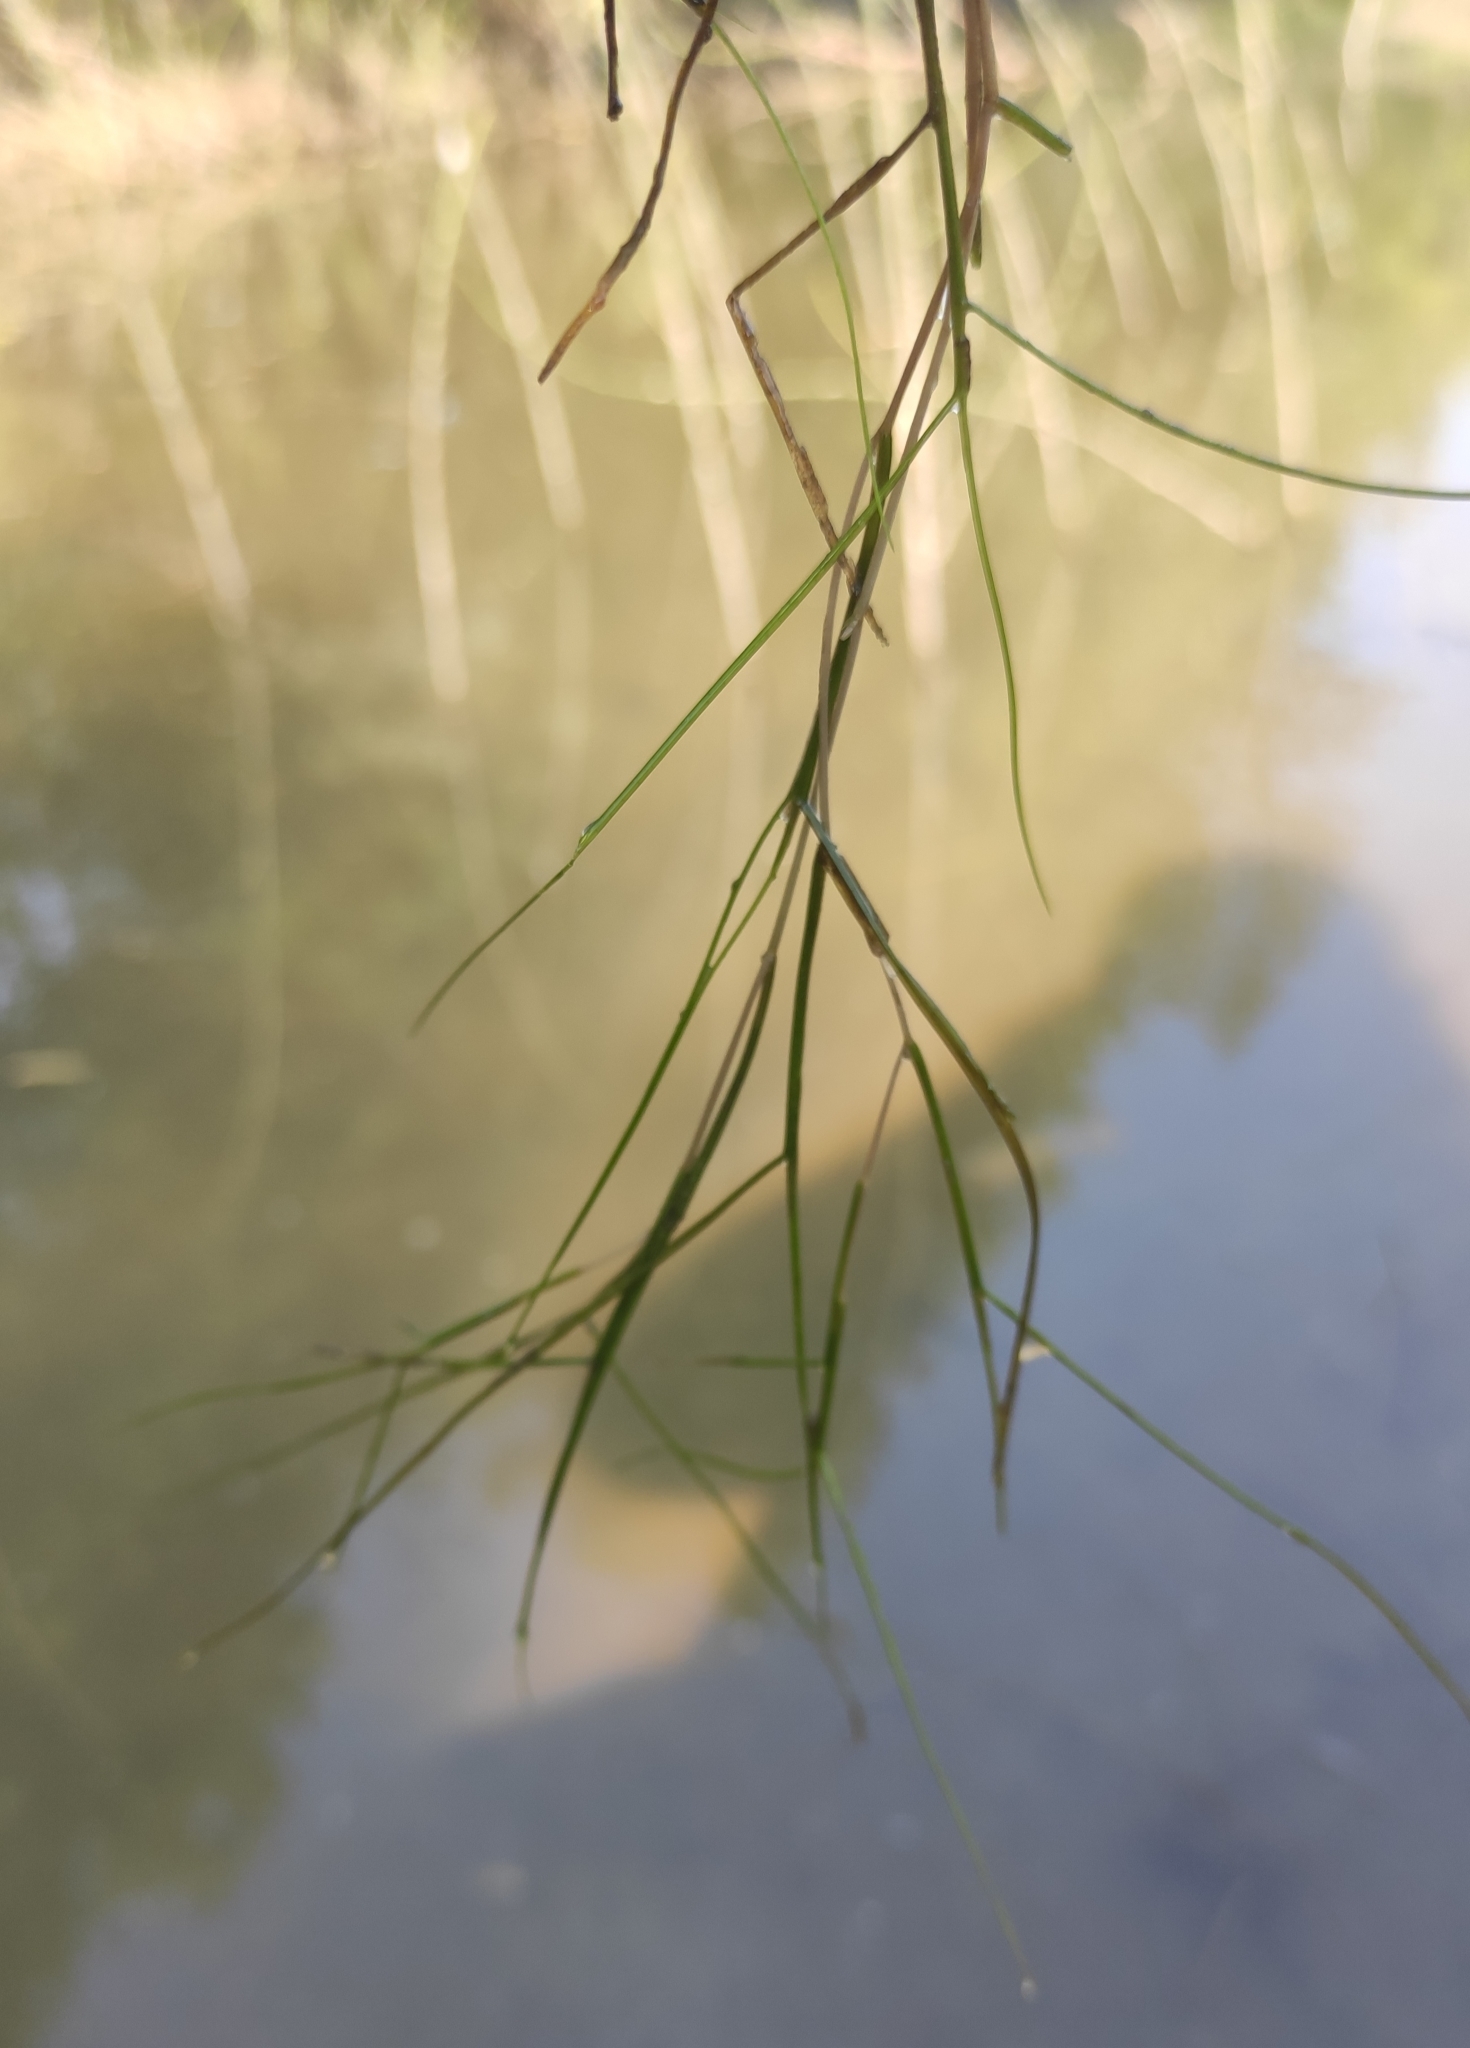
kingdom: Plantae
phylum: Tracheophyta
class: Liliopsida
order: Alismatales
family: Potamogetonaceae
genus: Stuckenia
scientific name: Stuckenia pectinata
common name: Sago pondweed
